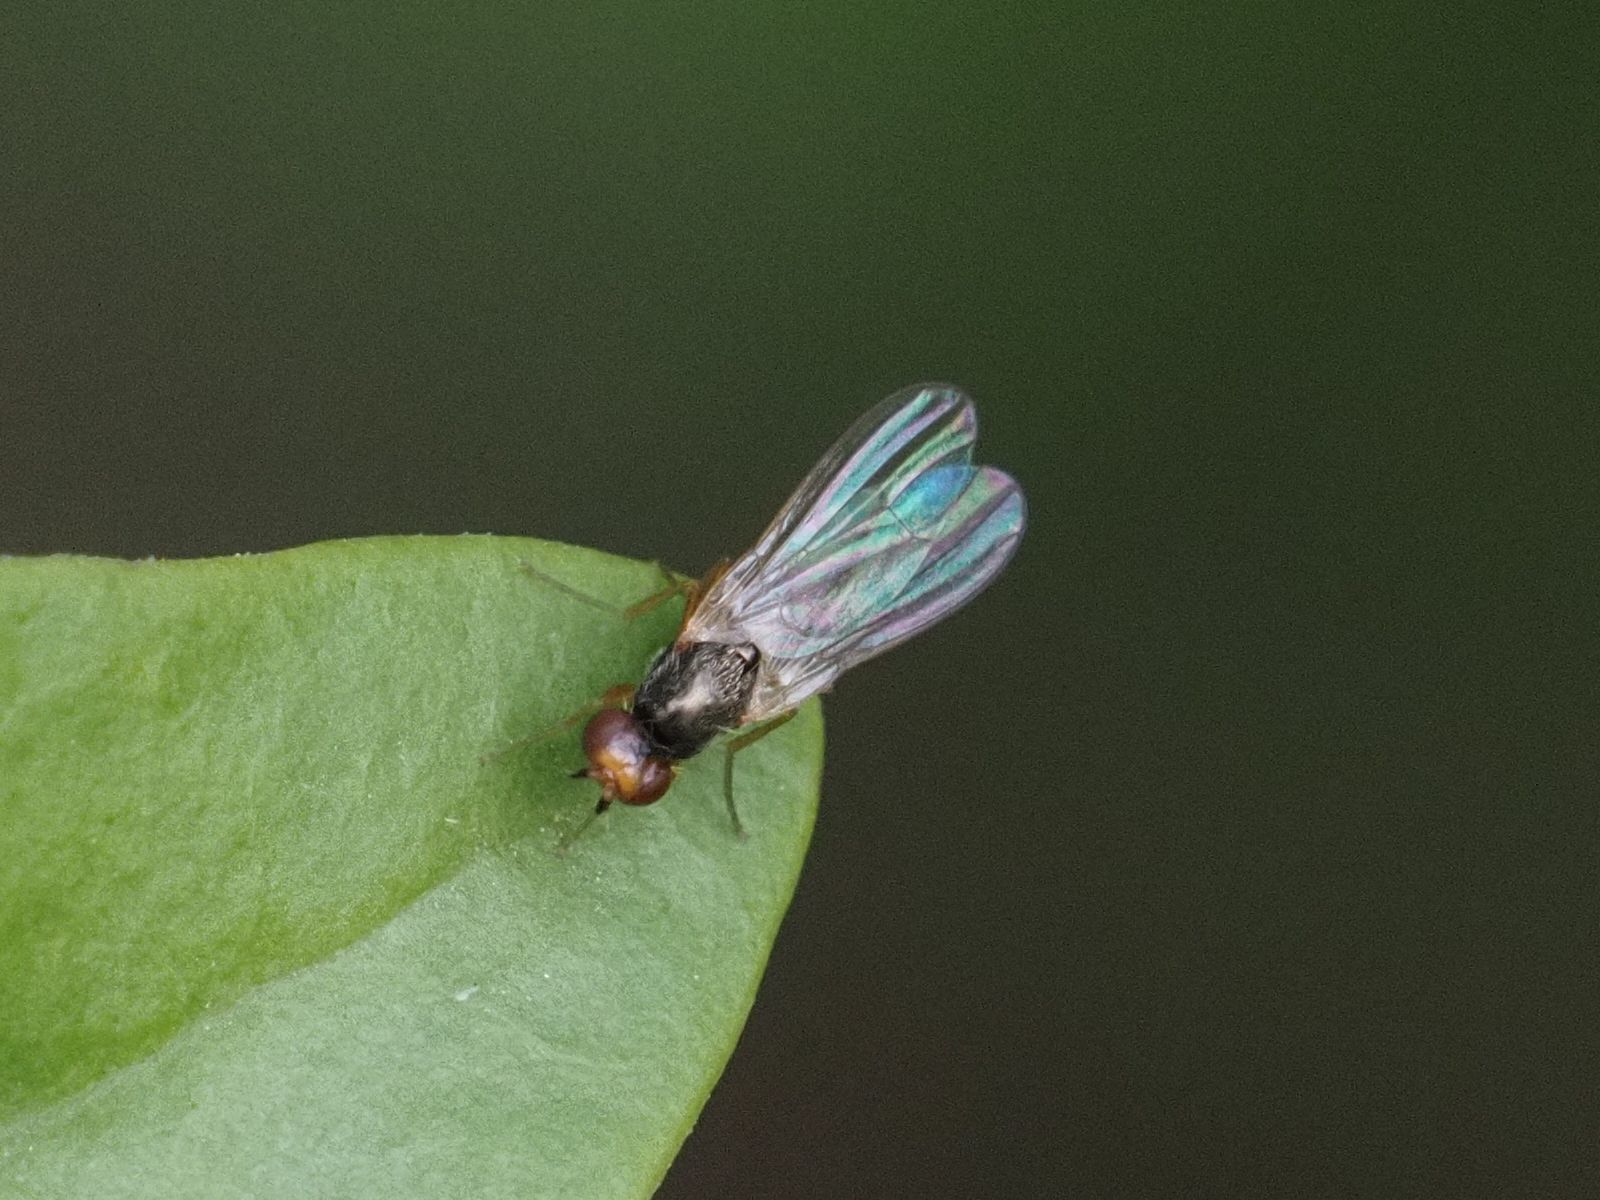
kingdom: Animalia
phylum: Arthropoda
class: Insecta
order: Diptera
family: Psilidae
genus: Chamaepsila
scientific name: Chamaepsila
